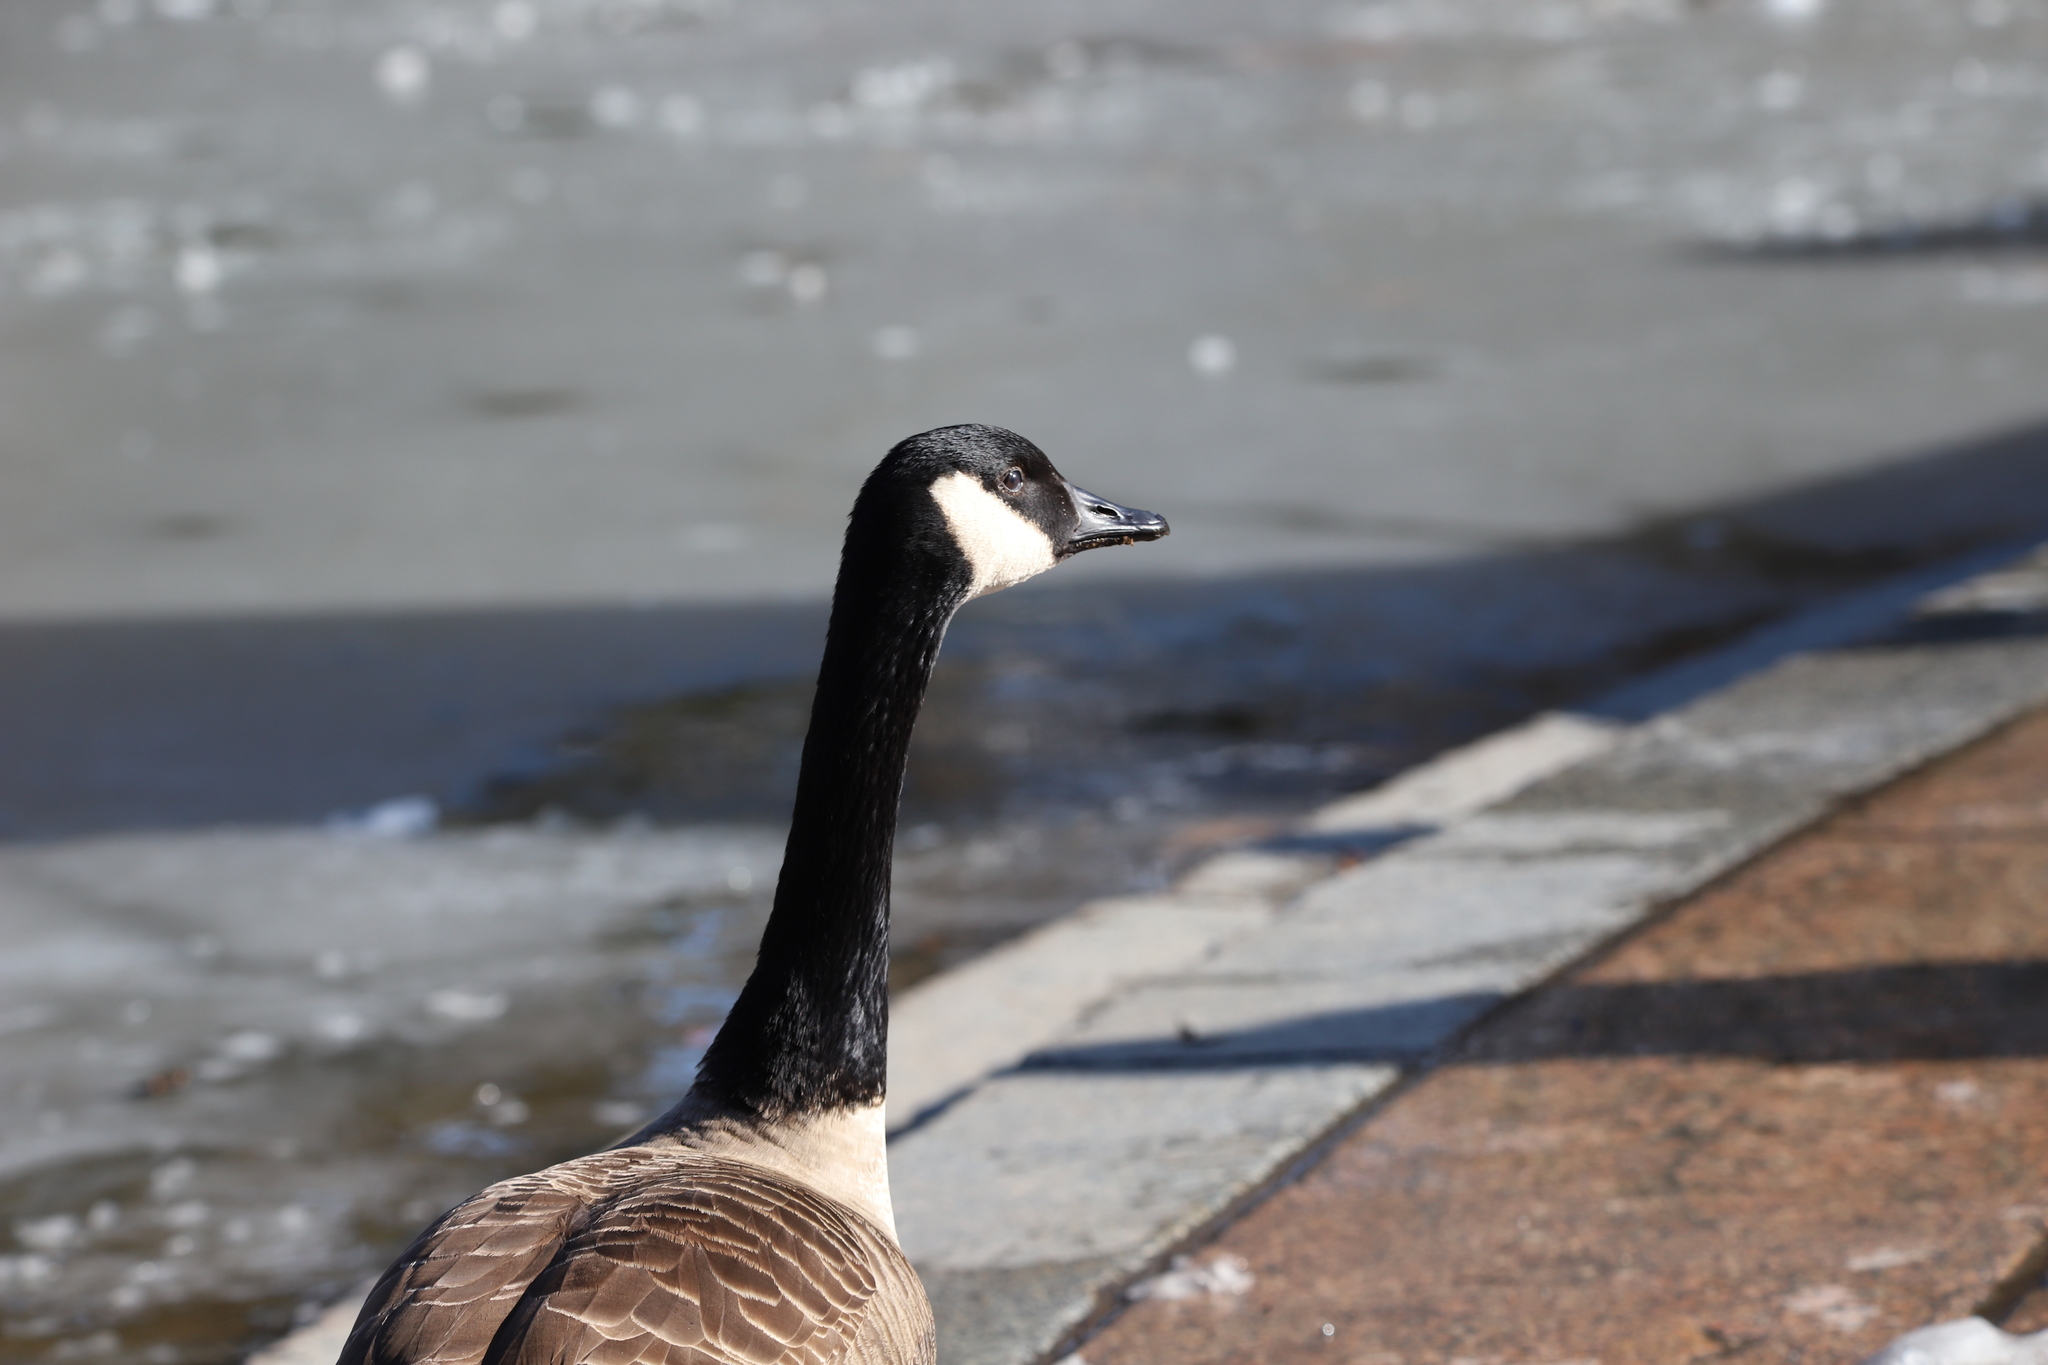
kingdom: Animalia
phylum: Chordata
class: Aves
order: Anseriformes
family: Anatidae
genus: Branta
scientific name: Branta canadensis
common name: Canada goose
